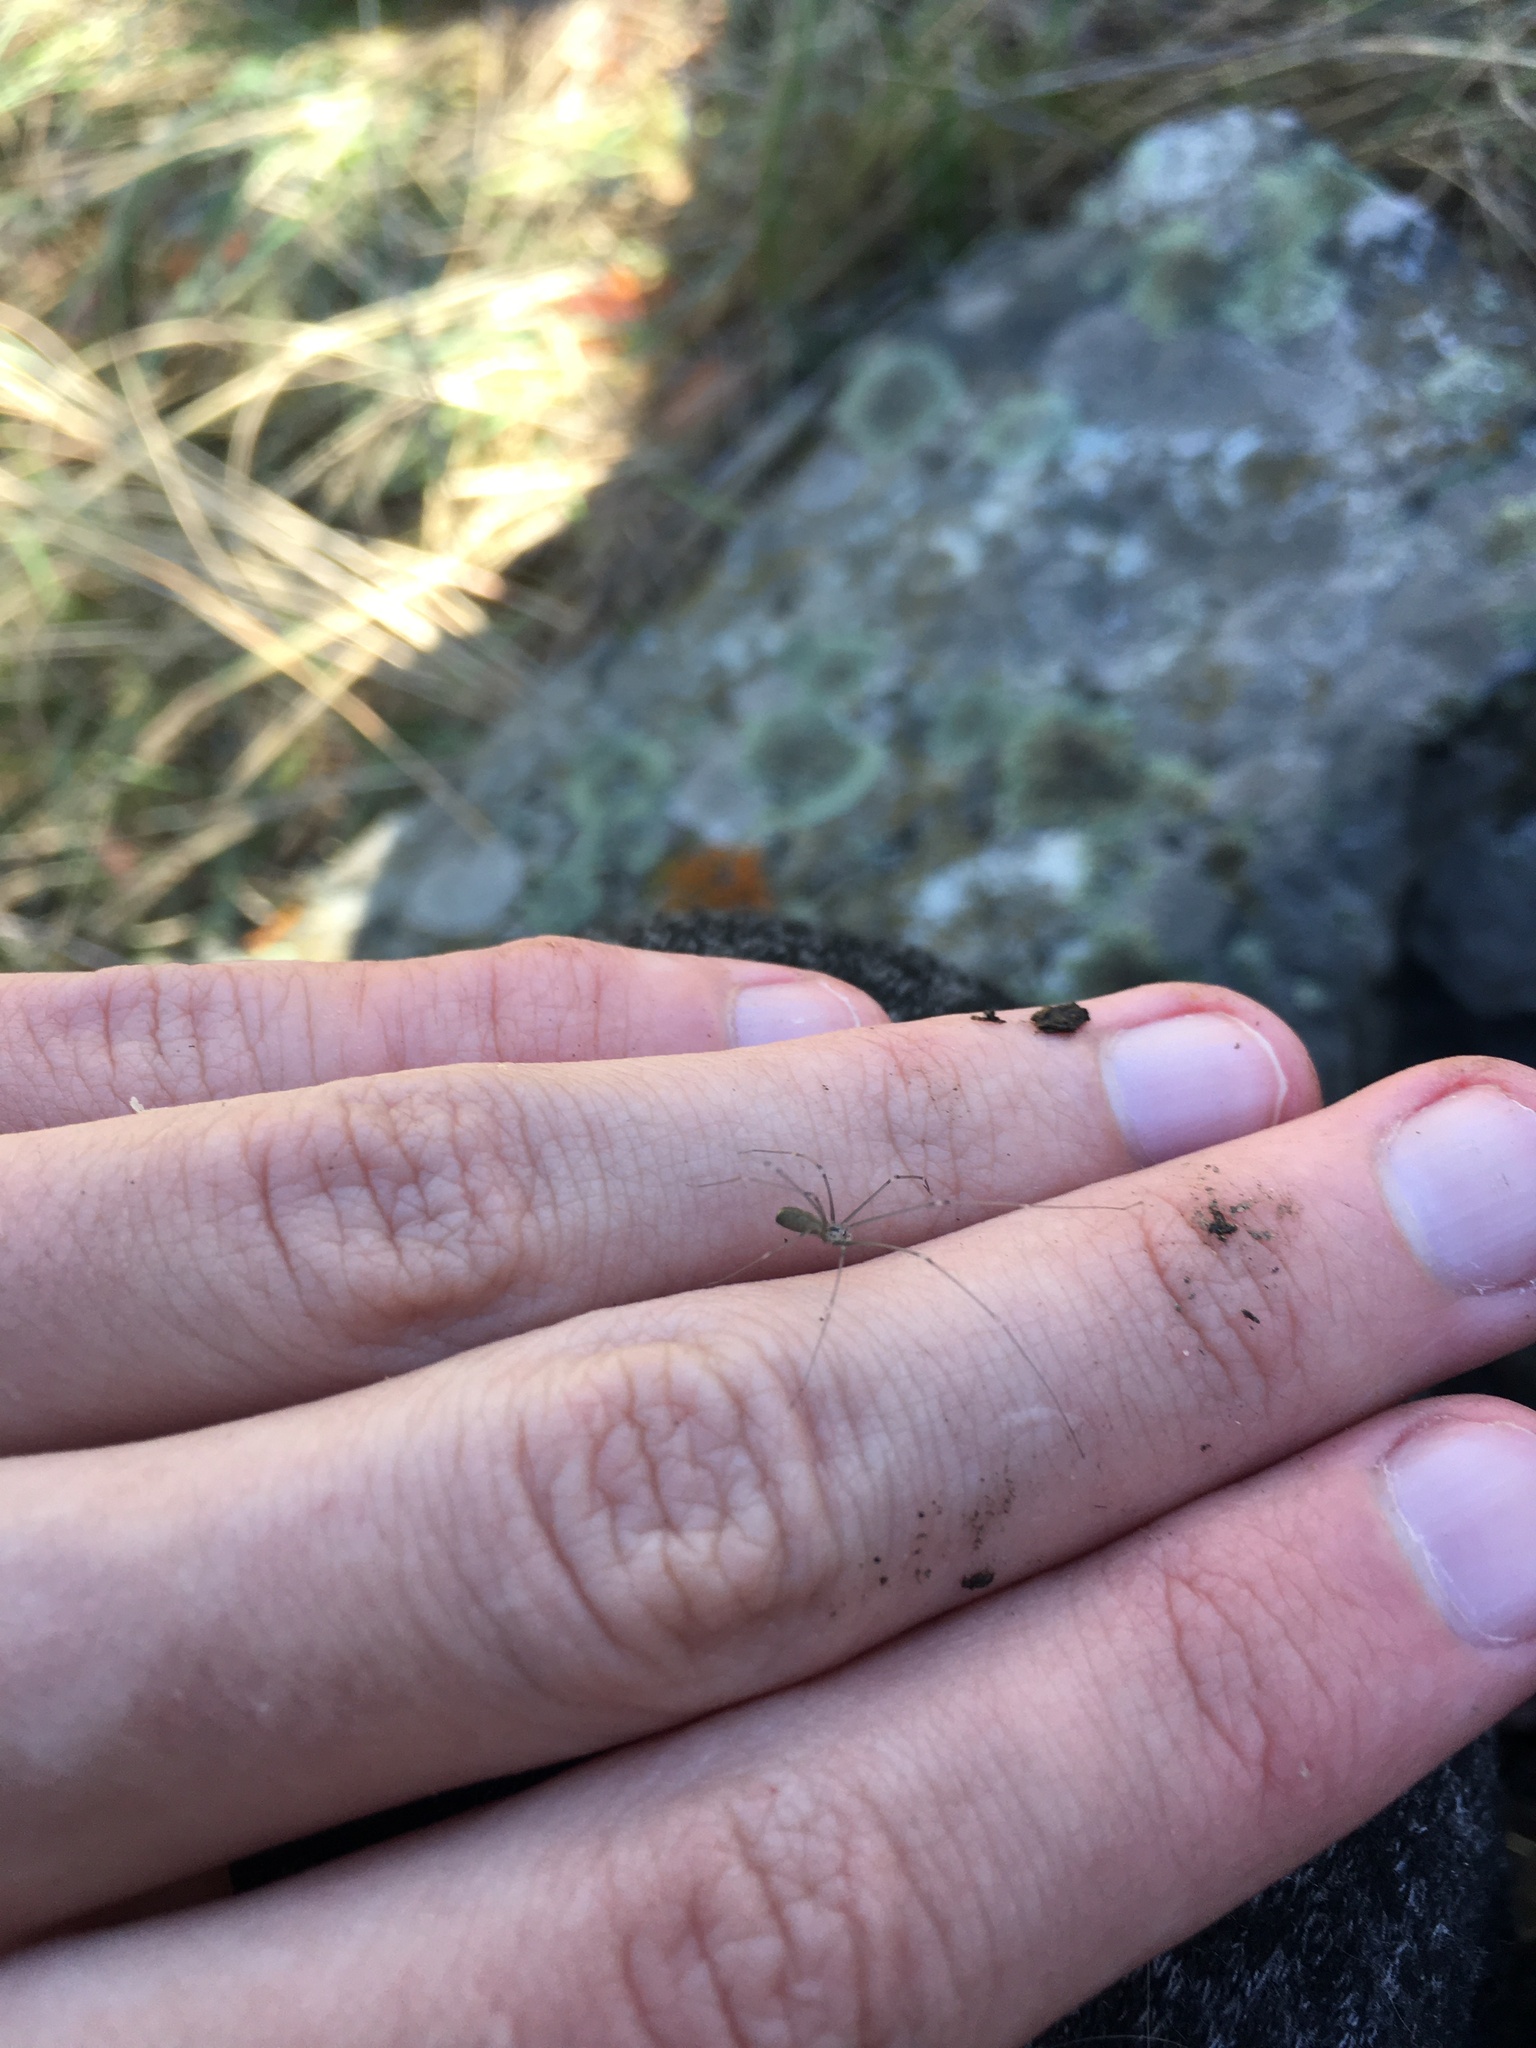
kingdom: Animalia
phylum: Arthropoda
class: Arachnida
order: Araneae
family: Pholcidae
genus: Pholcus
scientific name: Pholcus opilionoides
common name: Daddylongleg spider
